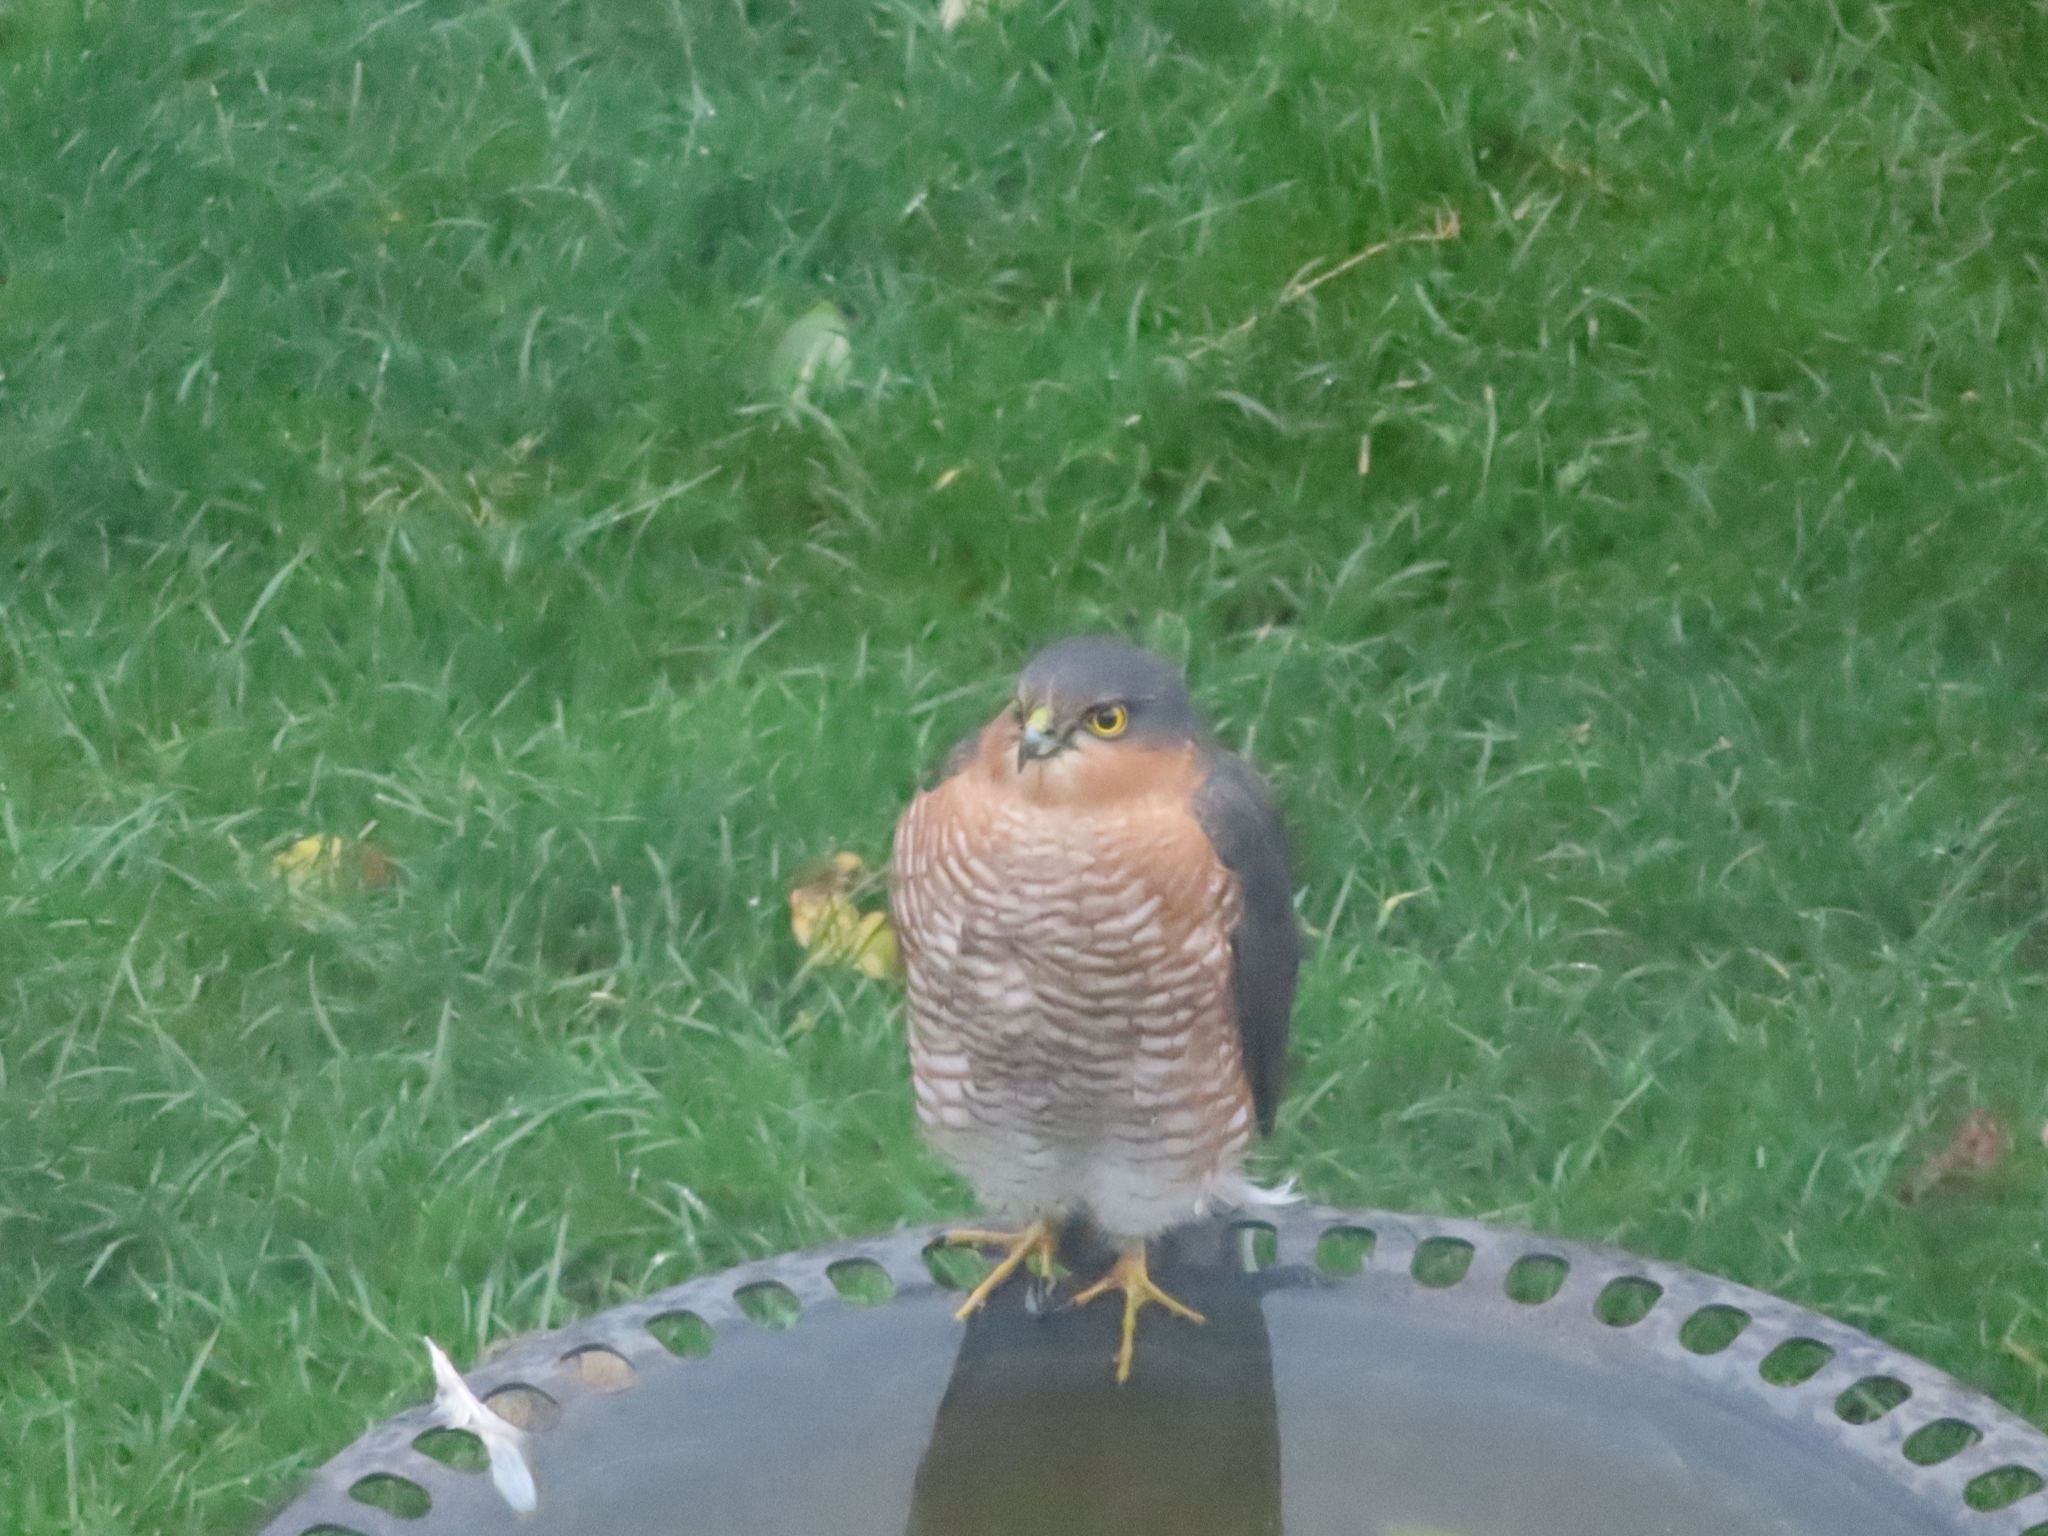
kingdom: Animalia
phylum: Chordata
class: Aves
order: Accipitriformes
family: Accipitridae
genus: Accipiter
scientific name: Accipiter nisus
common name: Eurasian sparrowhawk
